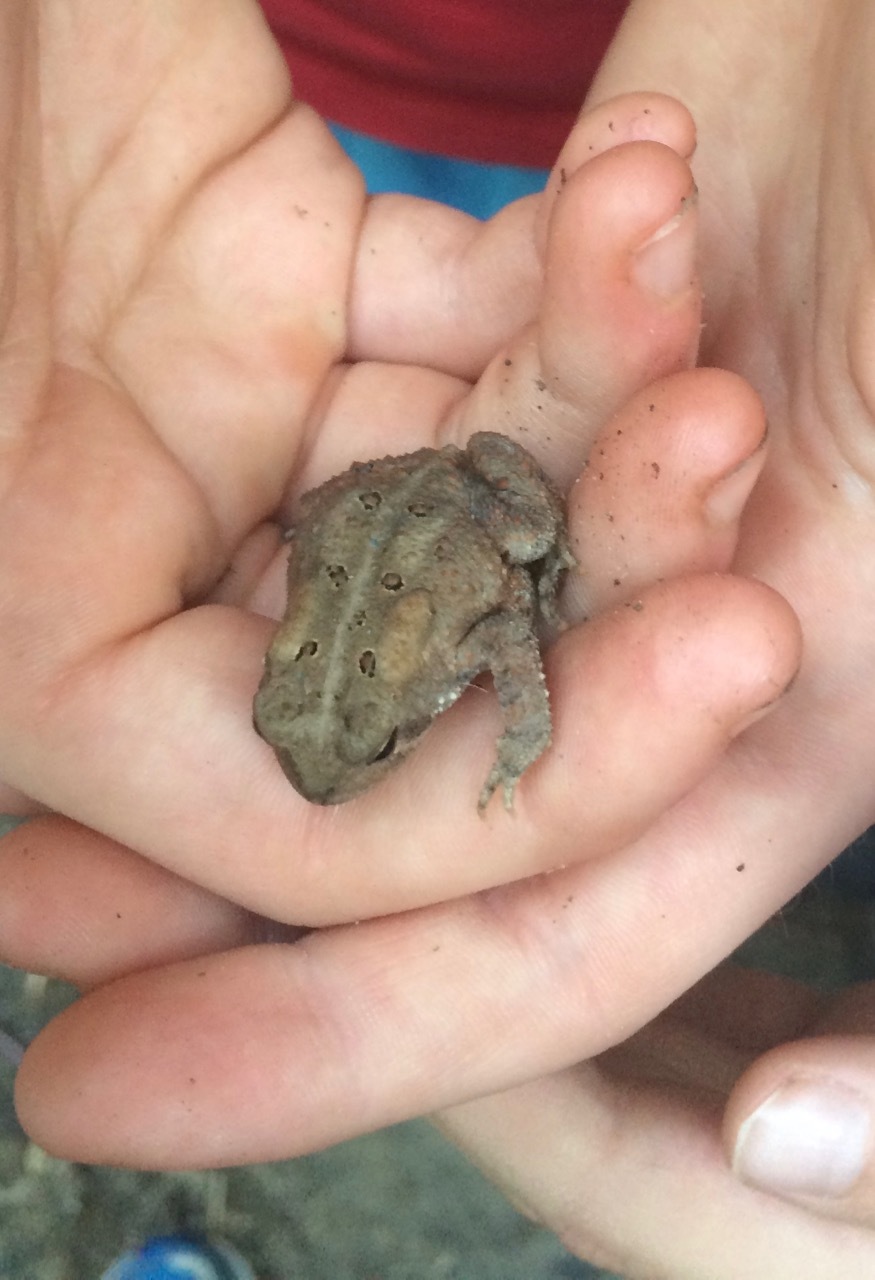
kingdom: Animalia
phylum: Chordata
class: Amphibia
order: Anura
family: Bufonidae
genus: Anaxyrus
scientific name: Anaxyrus americanus
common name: American toad
